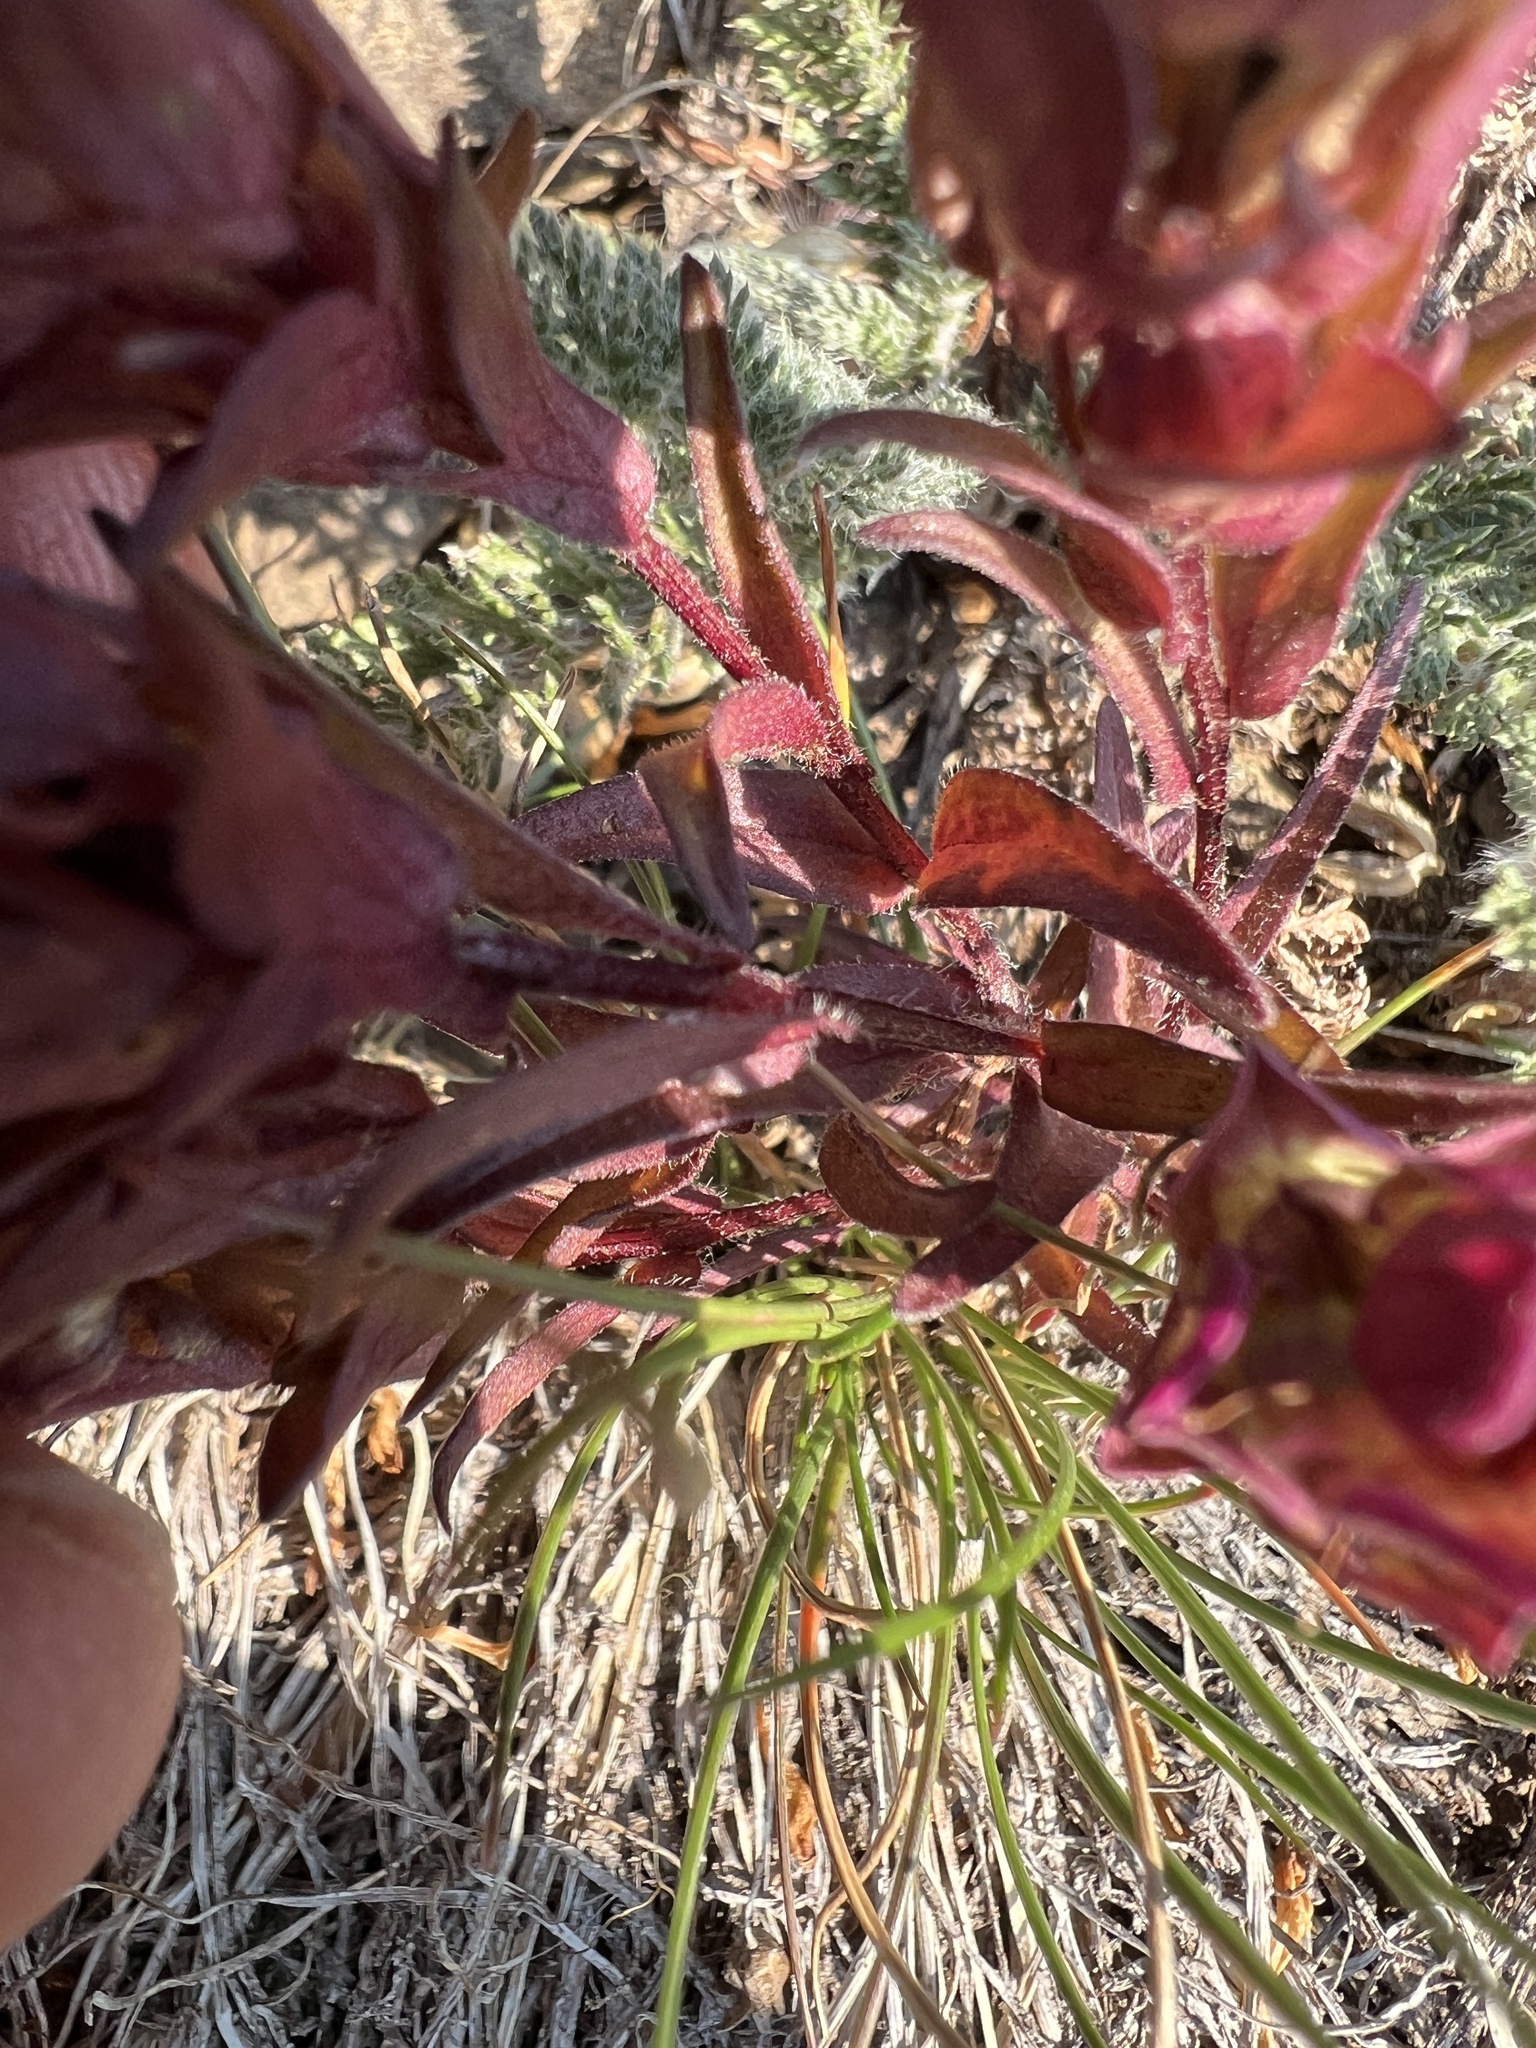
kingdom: Plantae
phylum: Tracheophyta
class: Magnoliopsida
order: Lamiales
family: Orobanchaceae
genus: Orthocarpus
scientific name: Orthocarpus imbricatus
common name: Mountain owl's-clover
